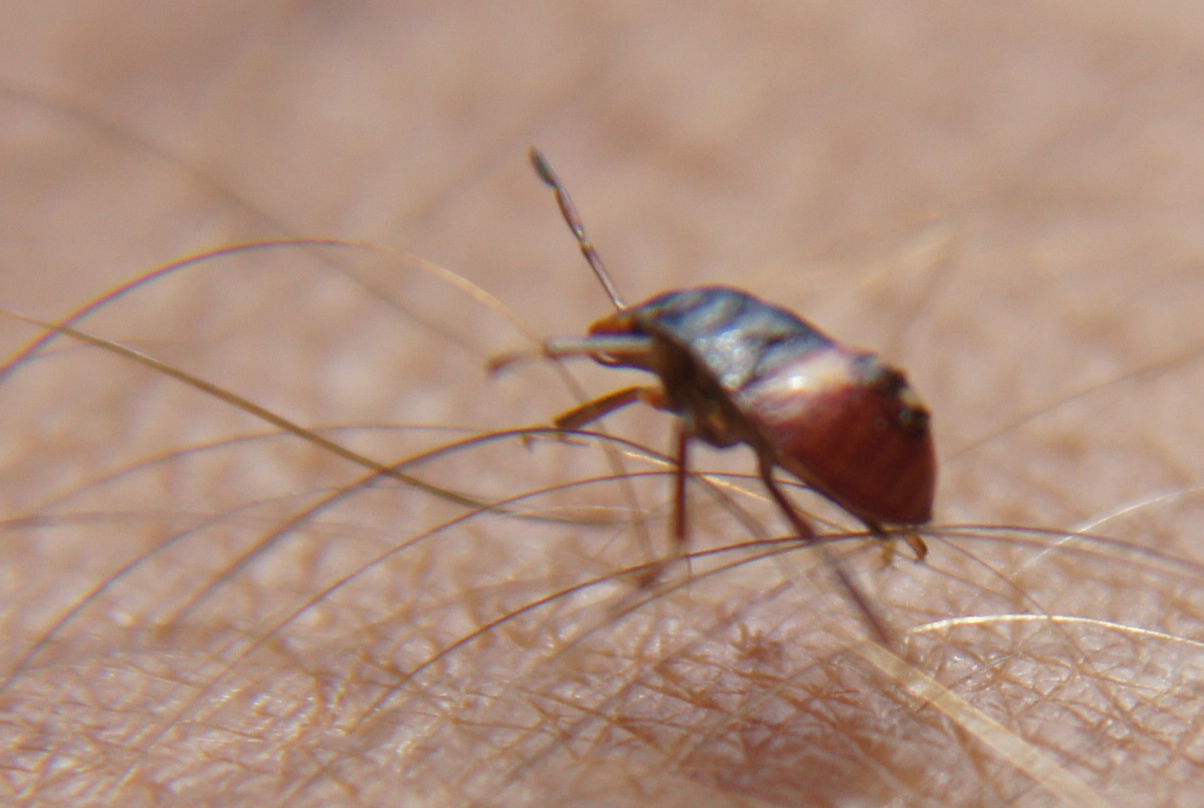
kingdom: Animalia
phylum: Arthropoda
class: Insecta
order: Hemiptera
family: Pentatomidae
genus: Acrosternum
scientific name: Acrosternum rubescens
